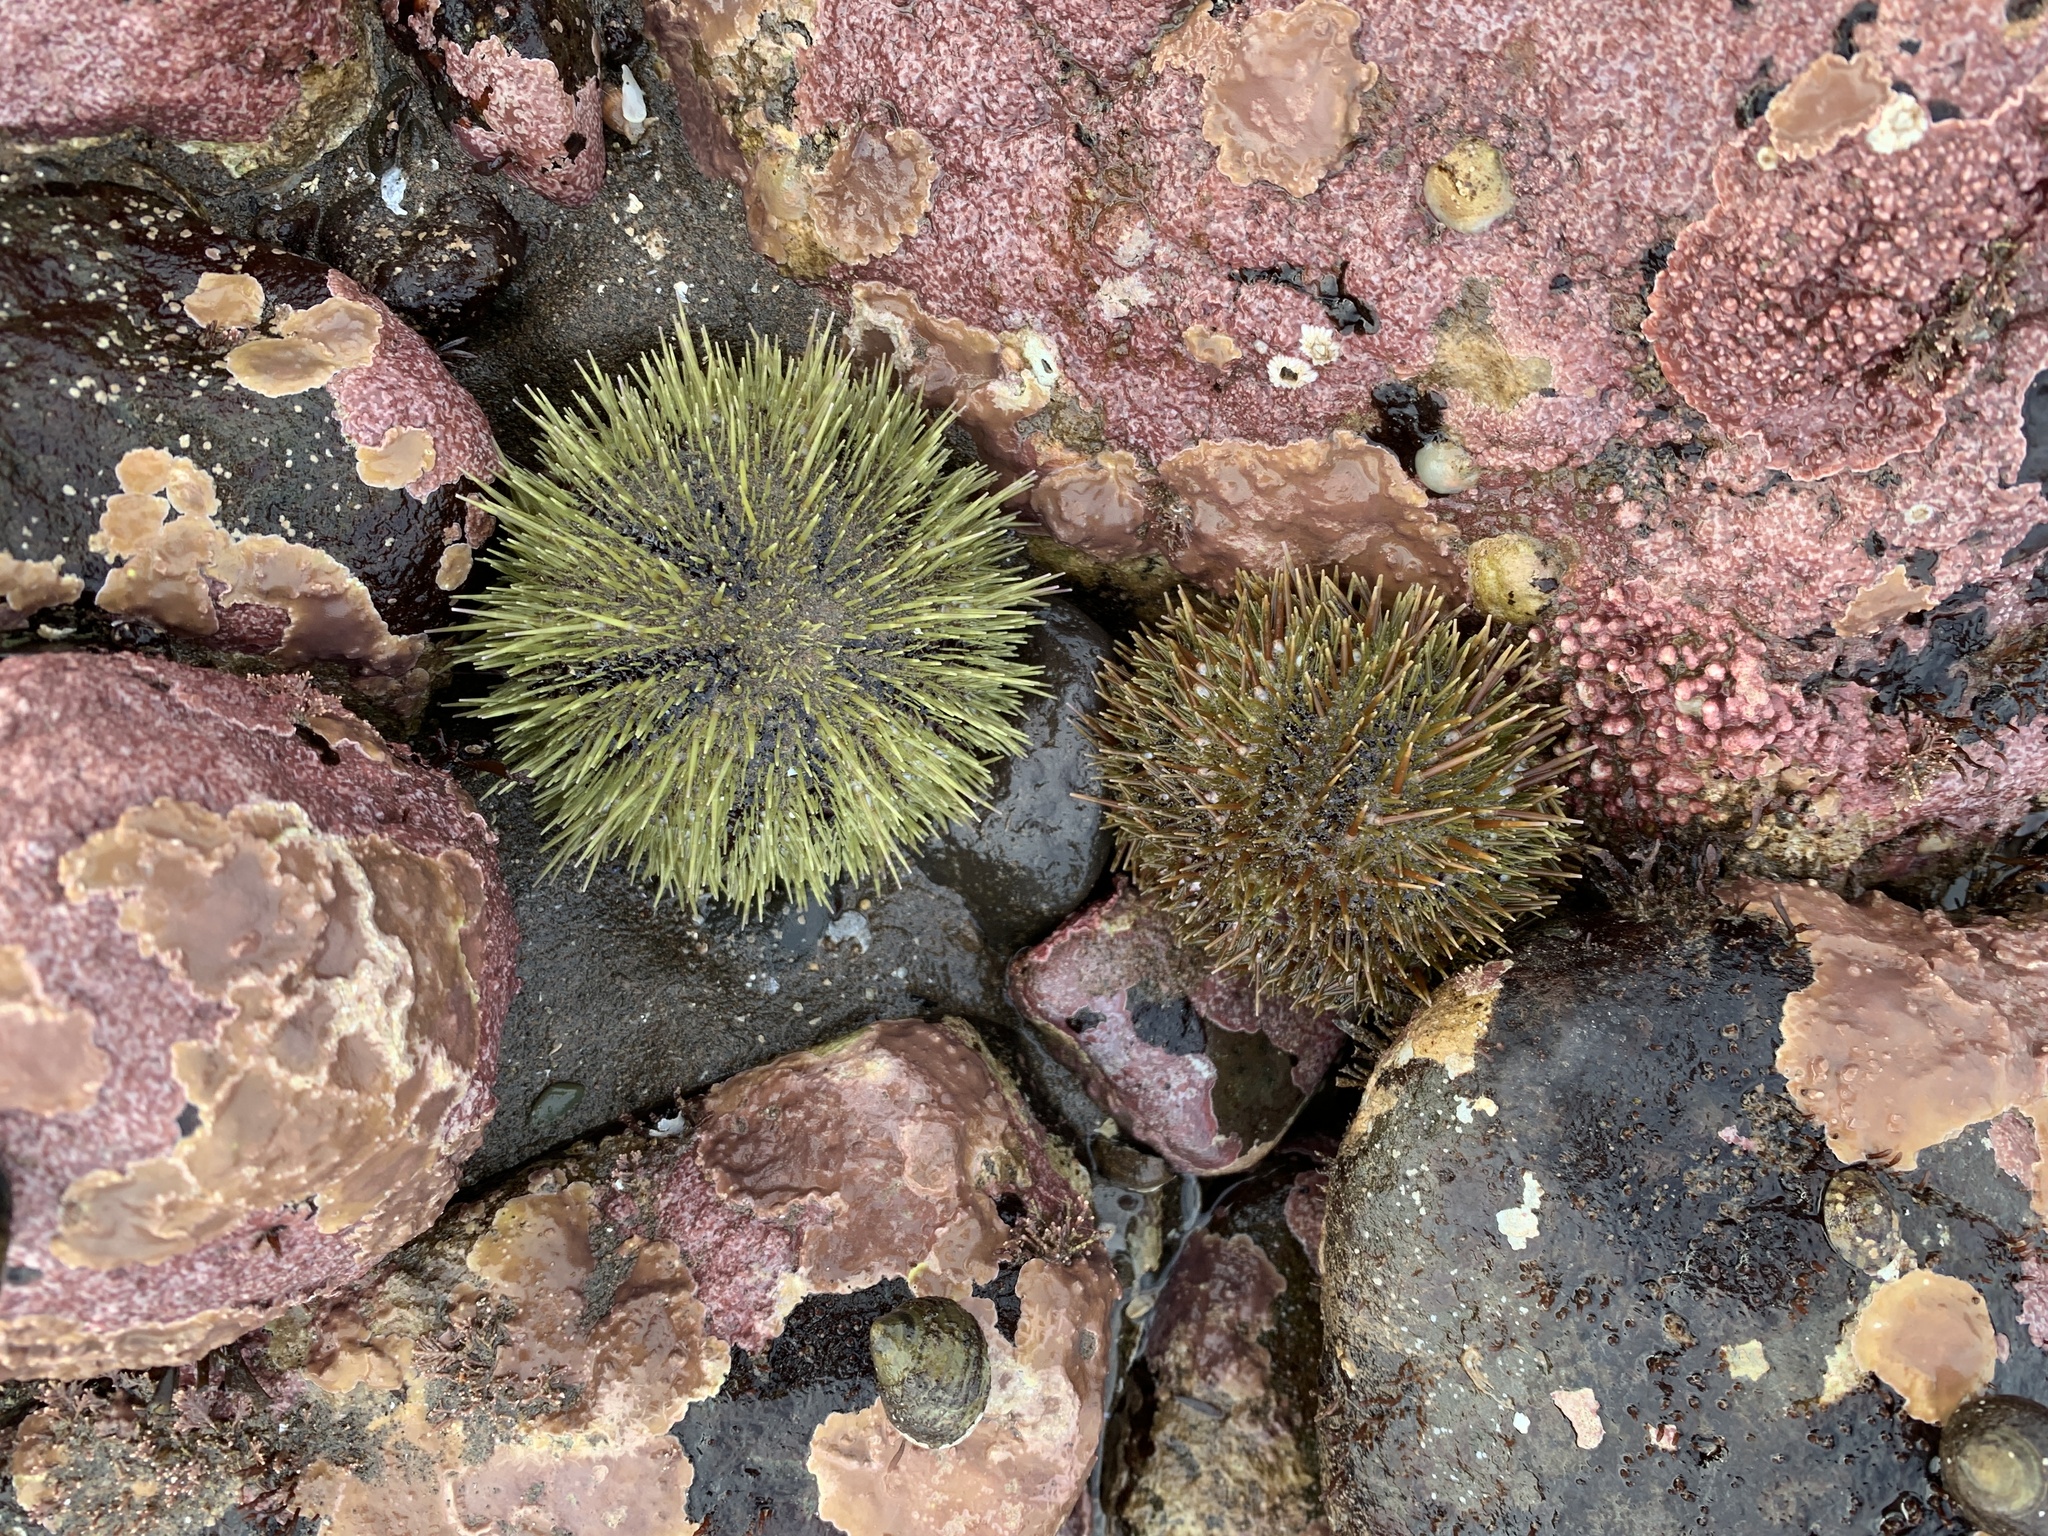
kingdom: Animalia
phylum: Echinodermata
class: Echinoidea
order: Camarodonta
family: Strongylocentrotidae
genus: Strongylocentrotus
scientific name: Strongylocentrotus droebachiensis
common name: Northern sea urchin
